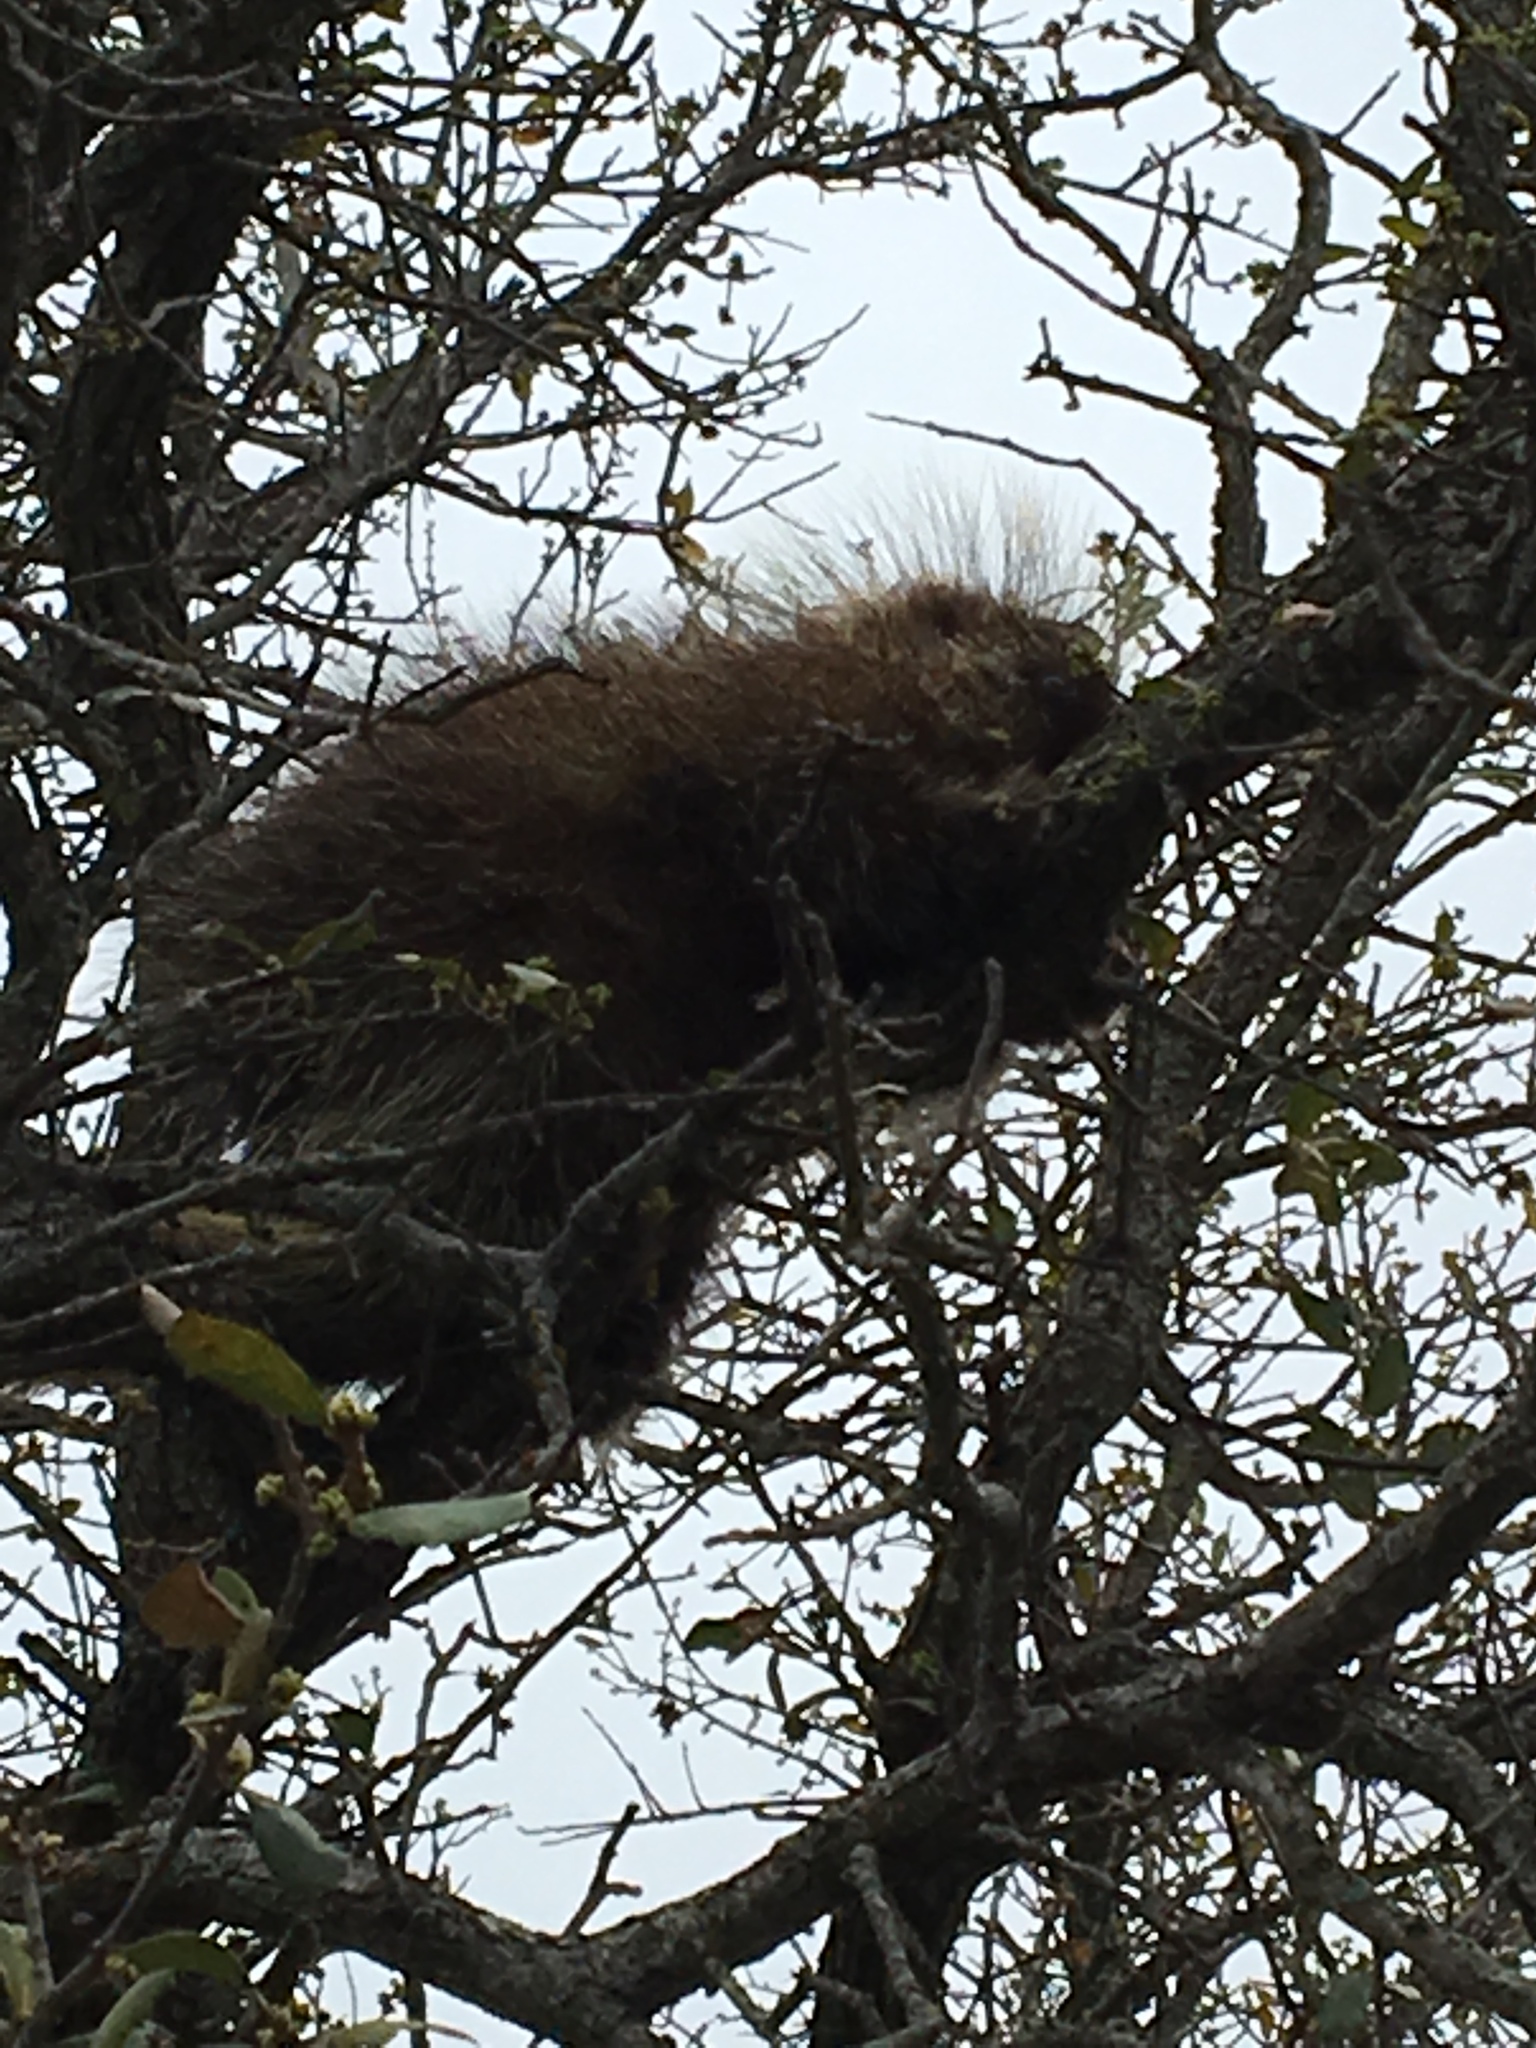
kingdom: Animalia
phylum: Chordata
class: Mammalia
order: Rodentia
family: Erethizontidae
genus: Erethizon
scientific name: Erethizon dorsatus
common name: North american porcupine
